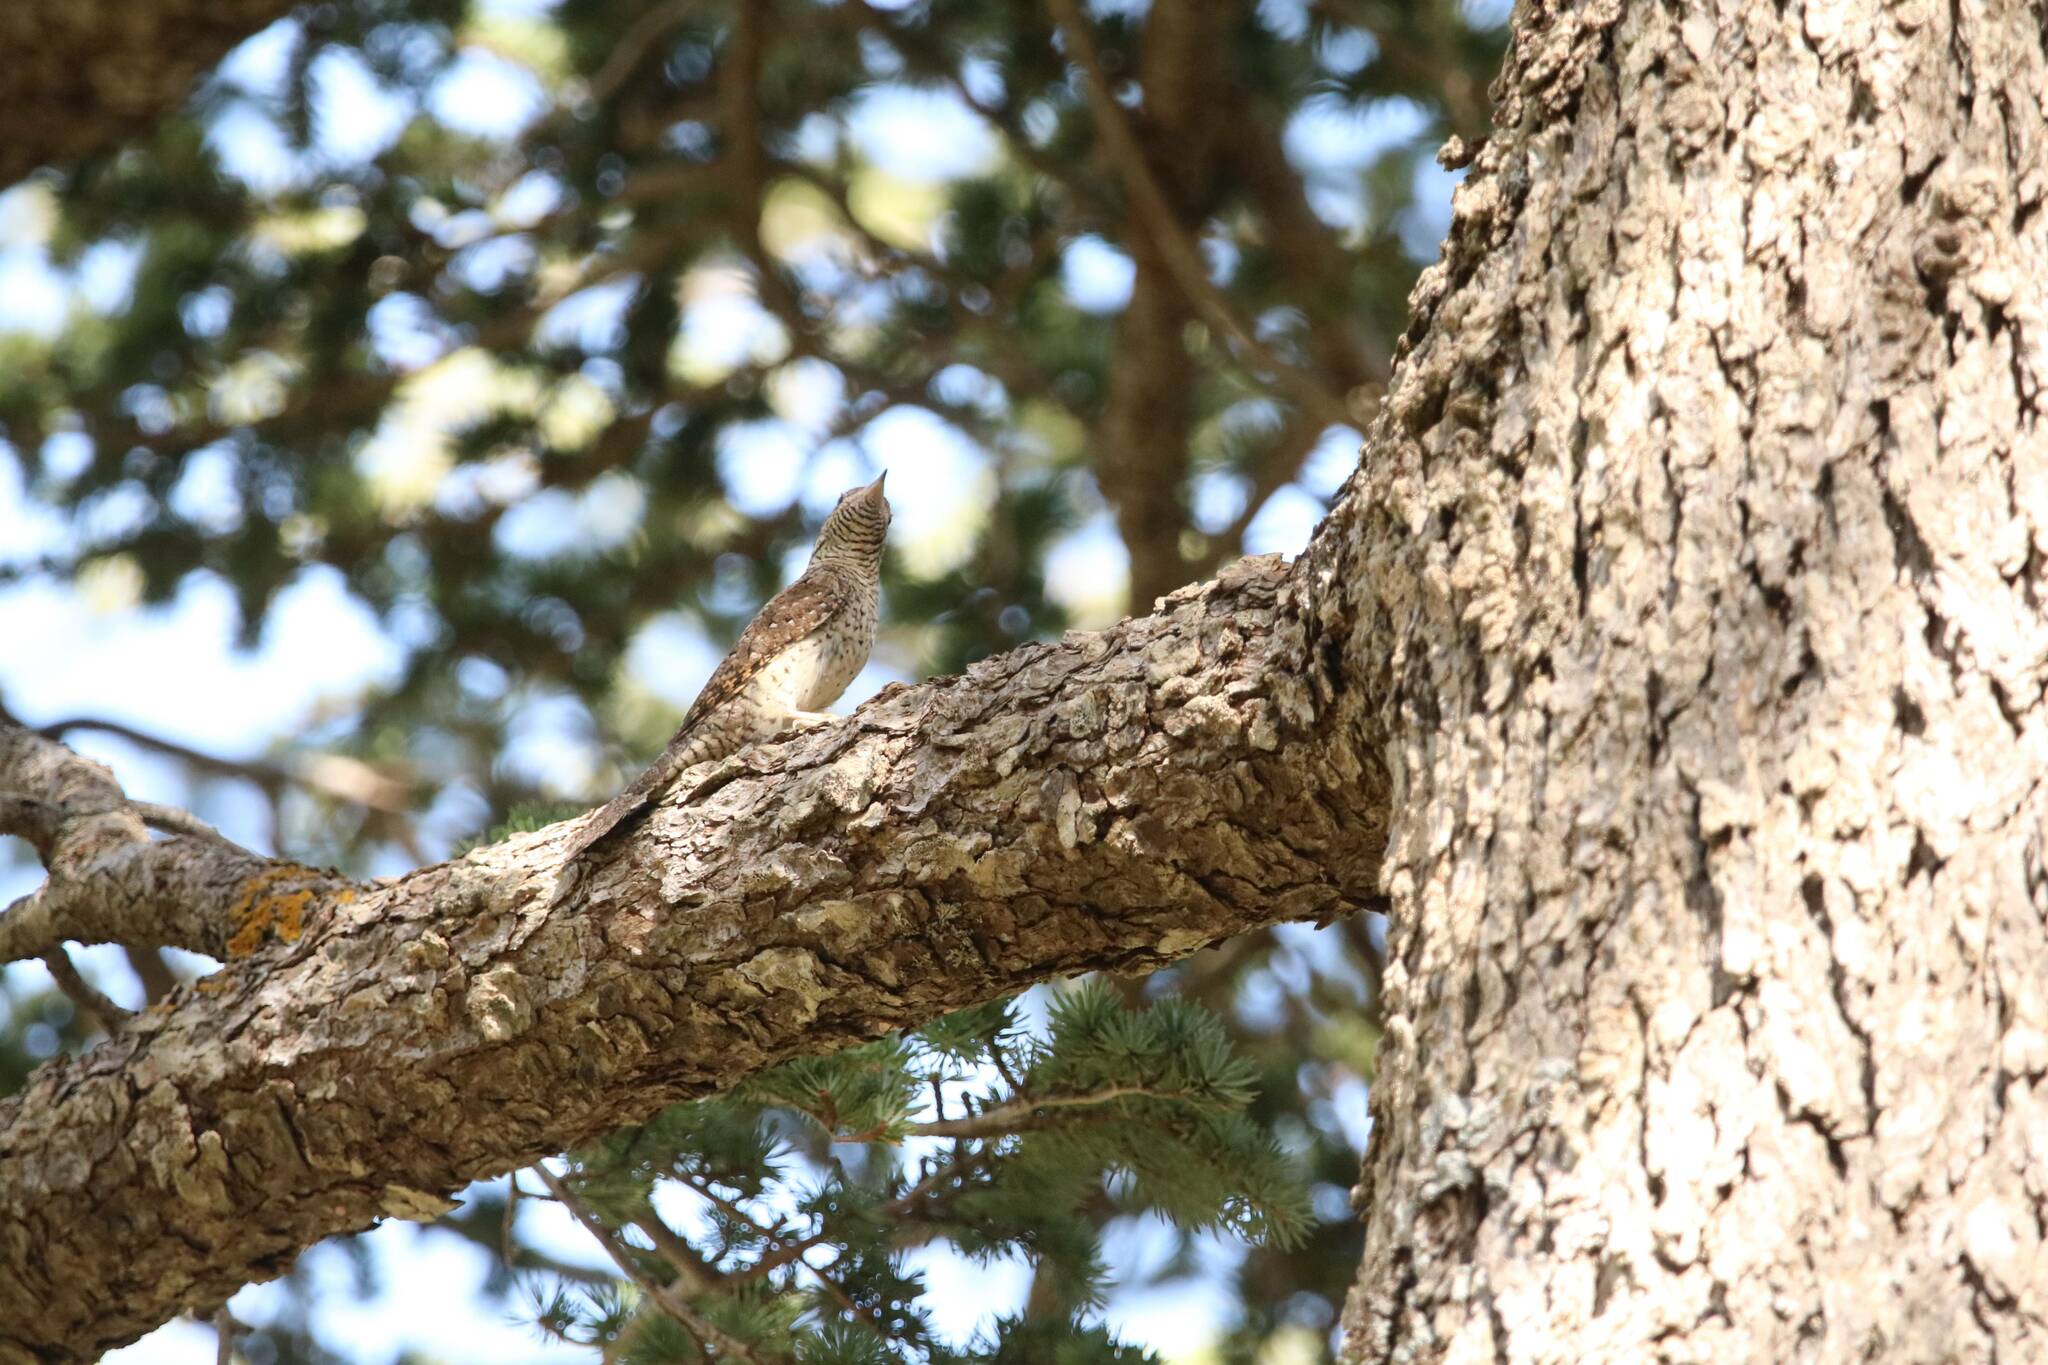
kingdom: Animalia
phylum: Chordata
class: Aves
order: Piciformes
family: Picidae
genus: Jynx
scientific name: Jynx torquilla
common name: Eurasian wryneck
